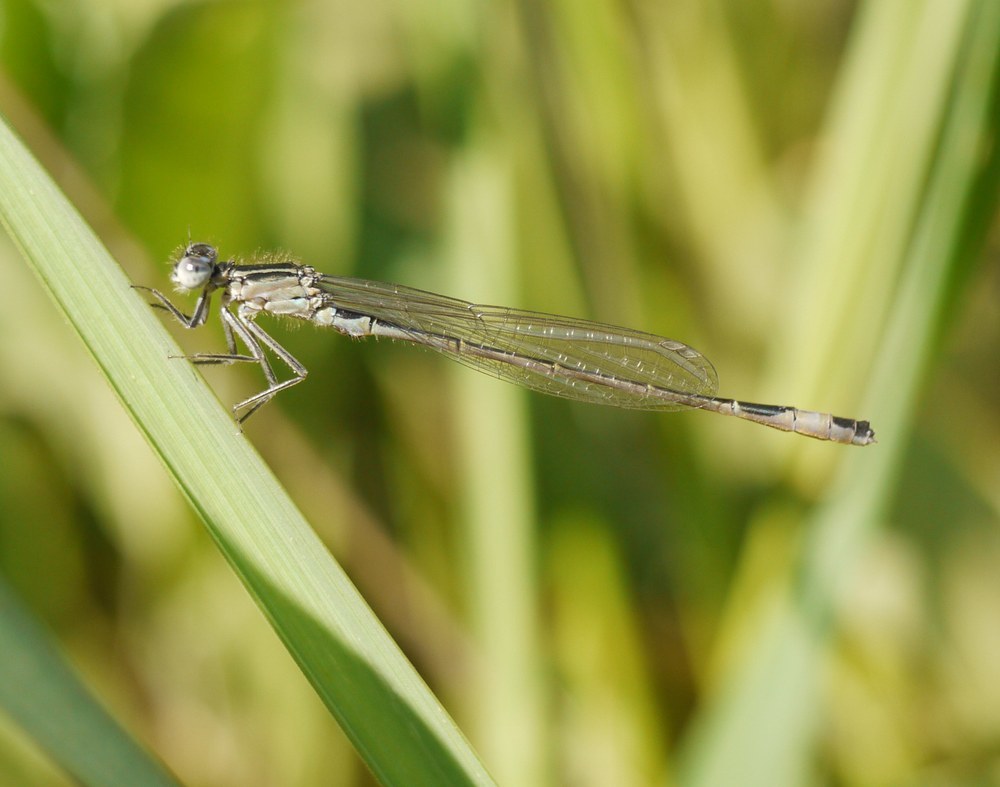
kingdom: Animalia
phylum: Arthropoda
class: Insecta
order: Odonata
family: Coenagrionidae
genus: Ischnura
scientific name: Ischnura elegans
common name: Blue-tailed damselfly
